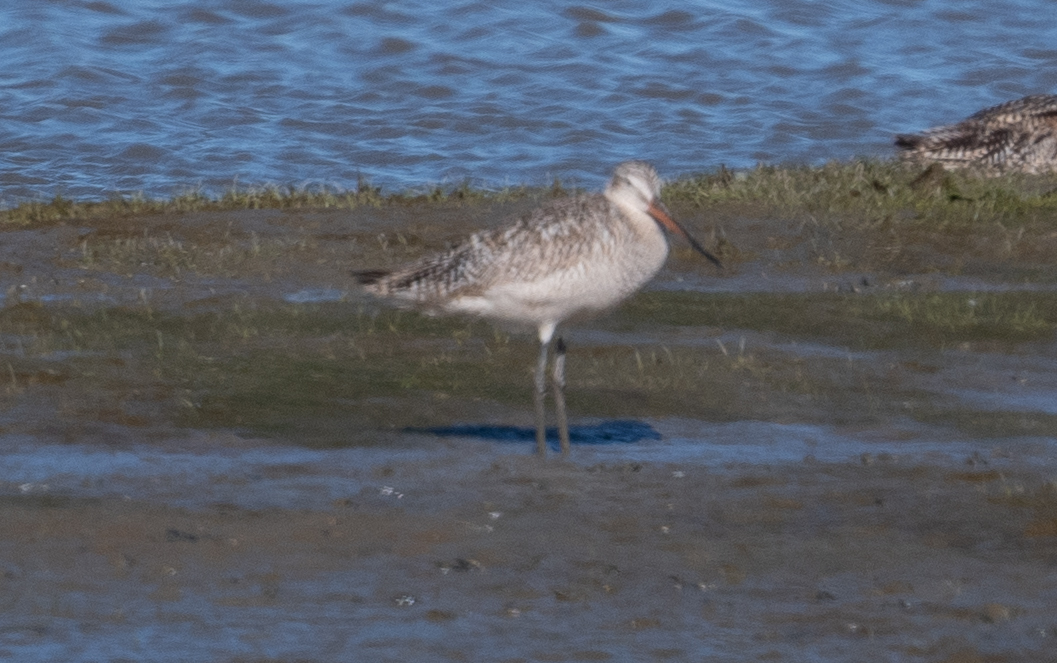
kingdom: Animalia
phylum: Chordata
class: Aves
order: Charadriiformes
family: Scolopacidae
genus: Limosa
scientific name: Limosa fedoa
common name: Marbled godwit
